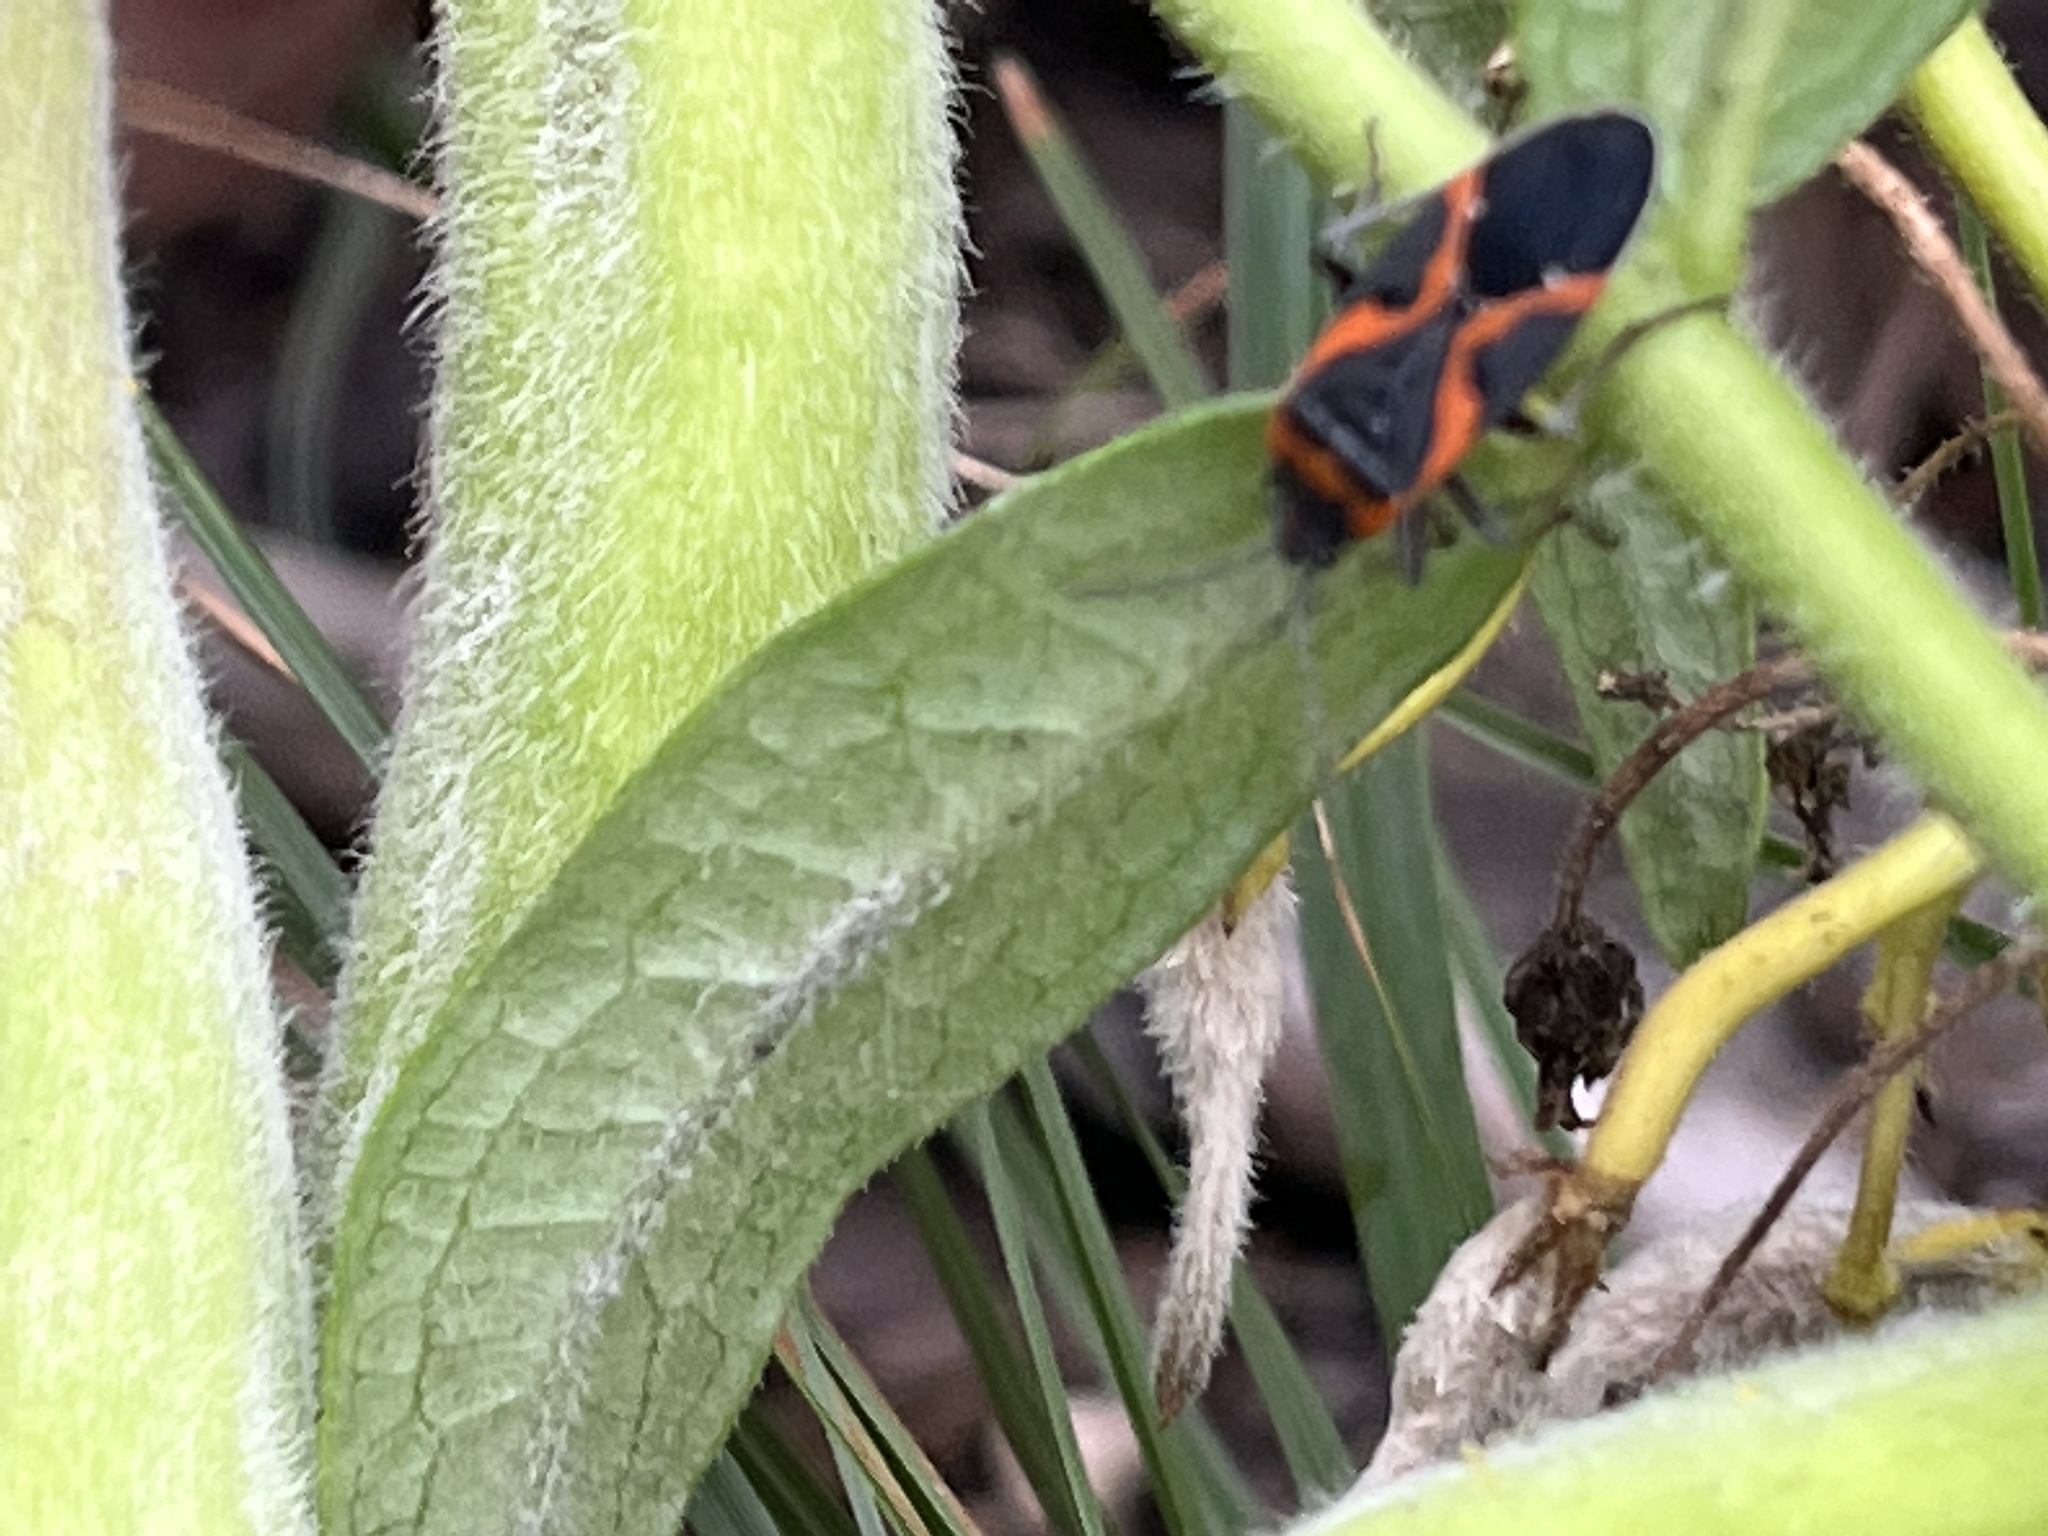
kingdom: Animalia
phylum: Arthropoda
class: Insecta
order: Hemiptera
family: Lygaeidae
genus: Lygaeus
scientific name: Lygaeus kalmii
